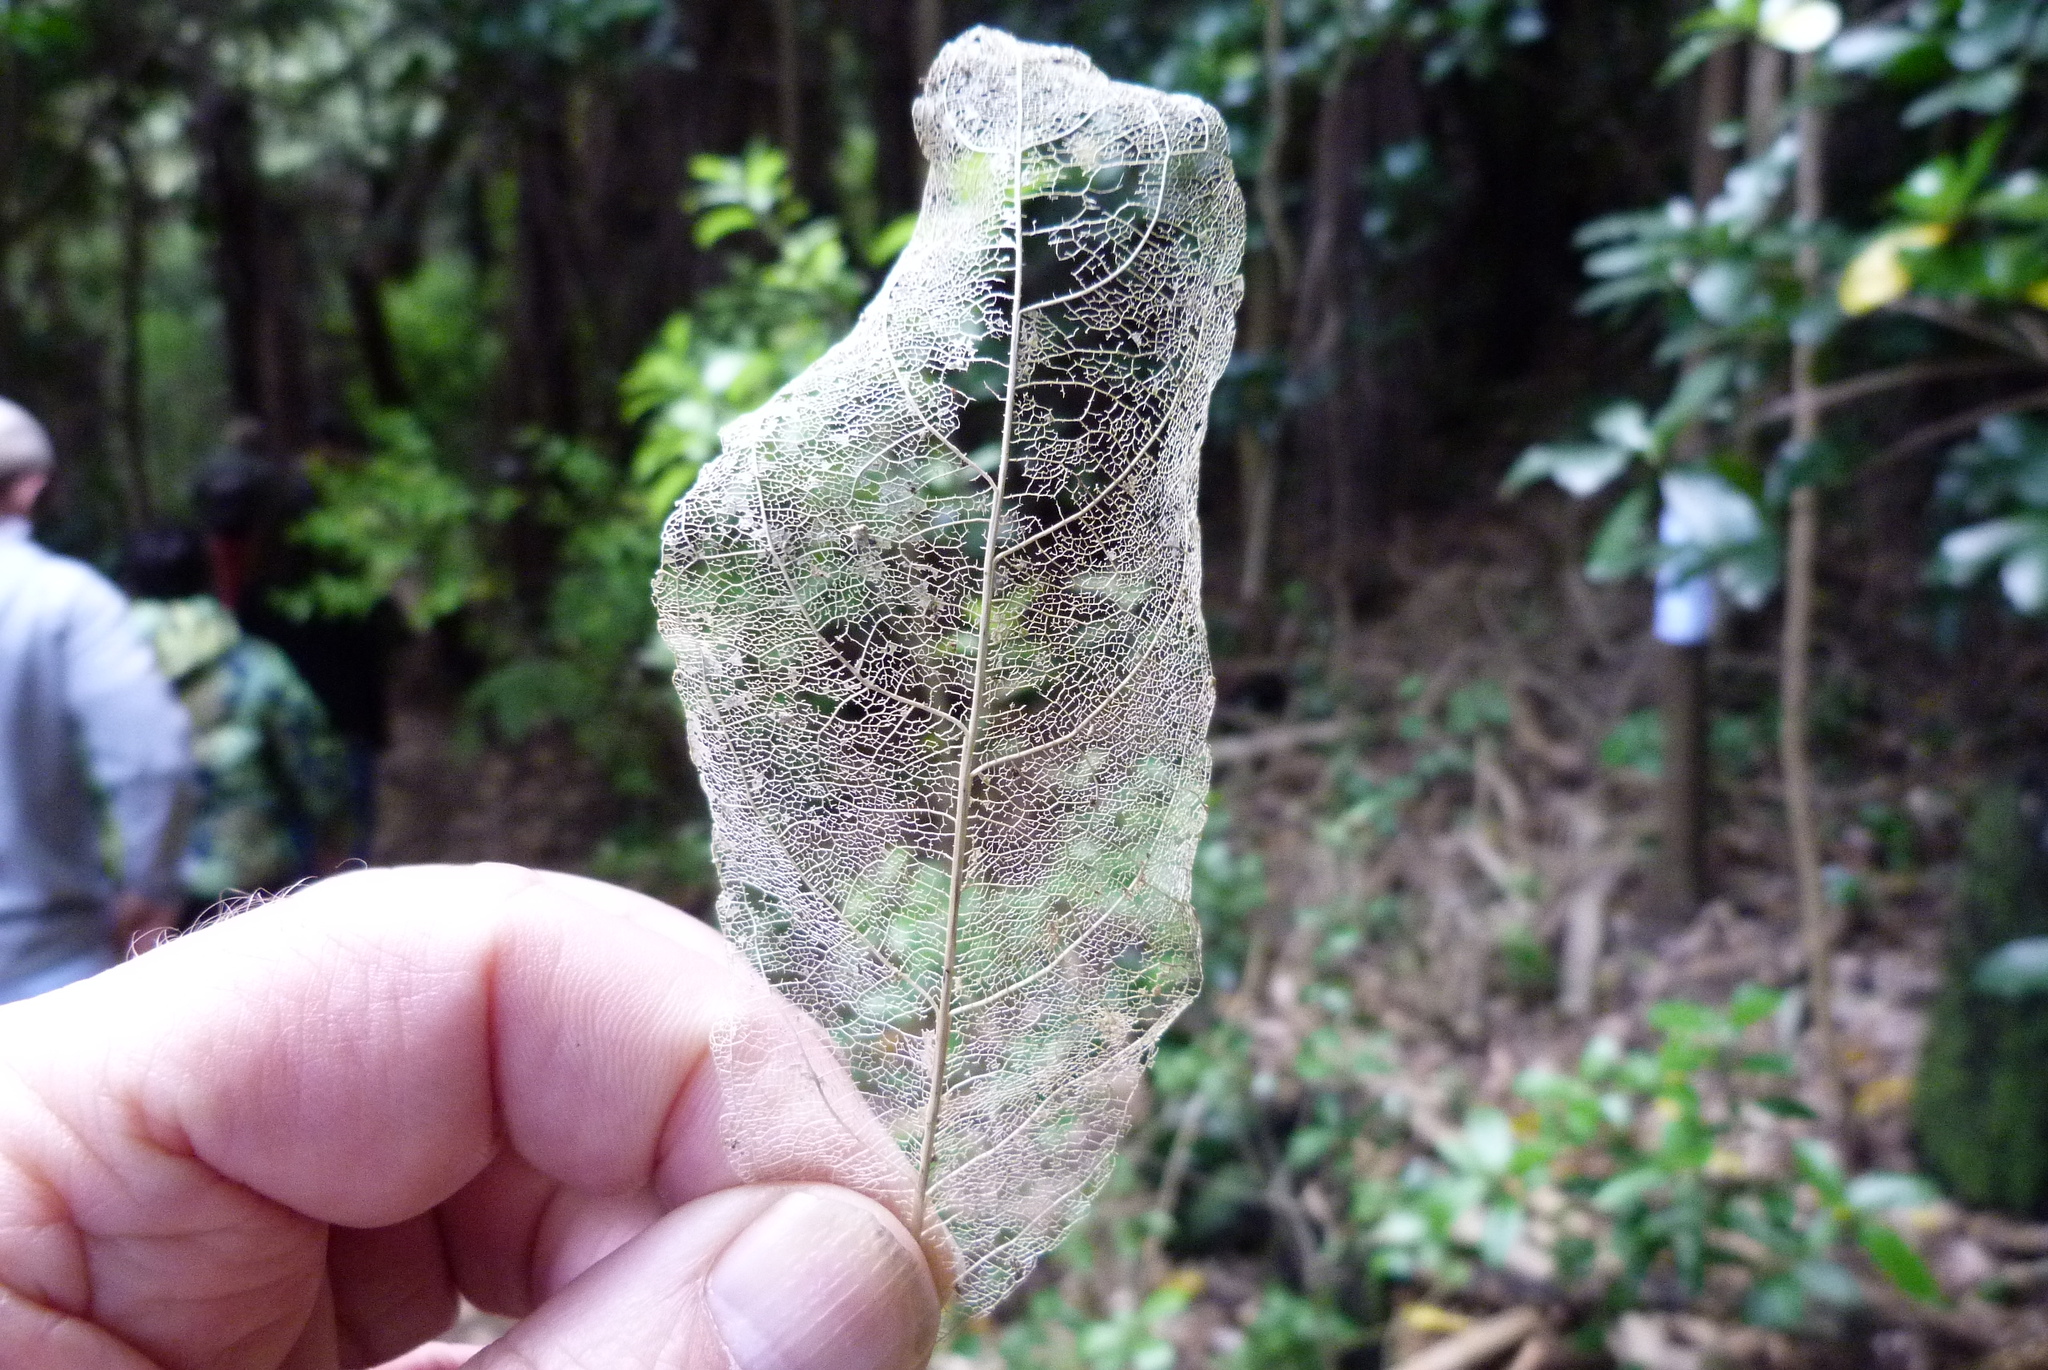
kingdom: Plantae
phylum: Tracheophyta
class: Magnoliopsida
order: Malpighiales
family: Violaceae
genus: Melicytus
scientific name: Melicytus ramiflorus
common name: Mahoe
